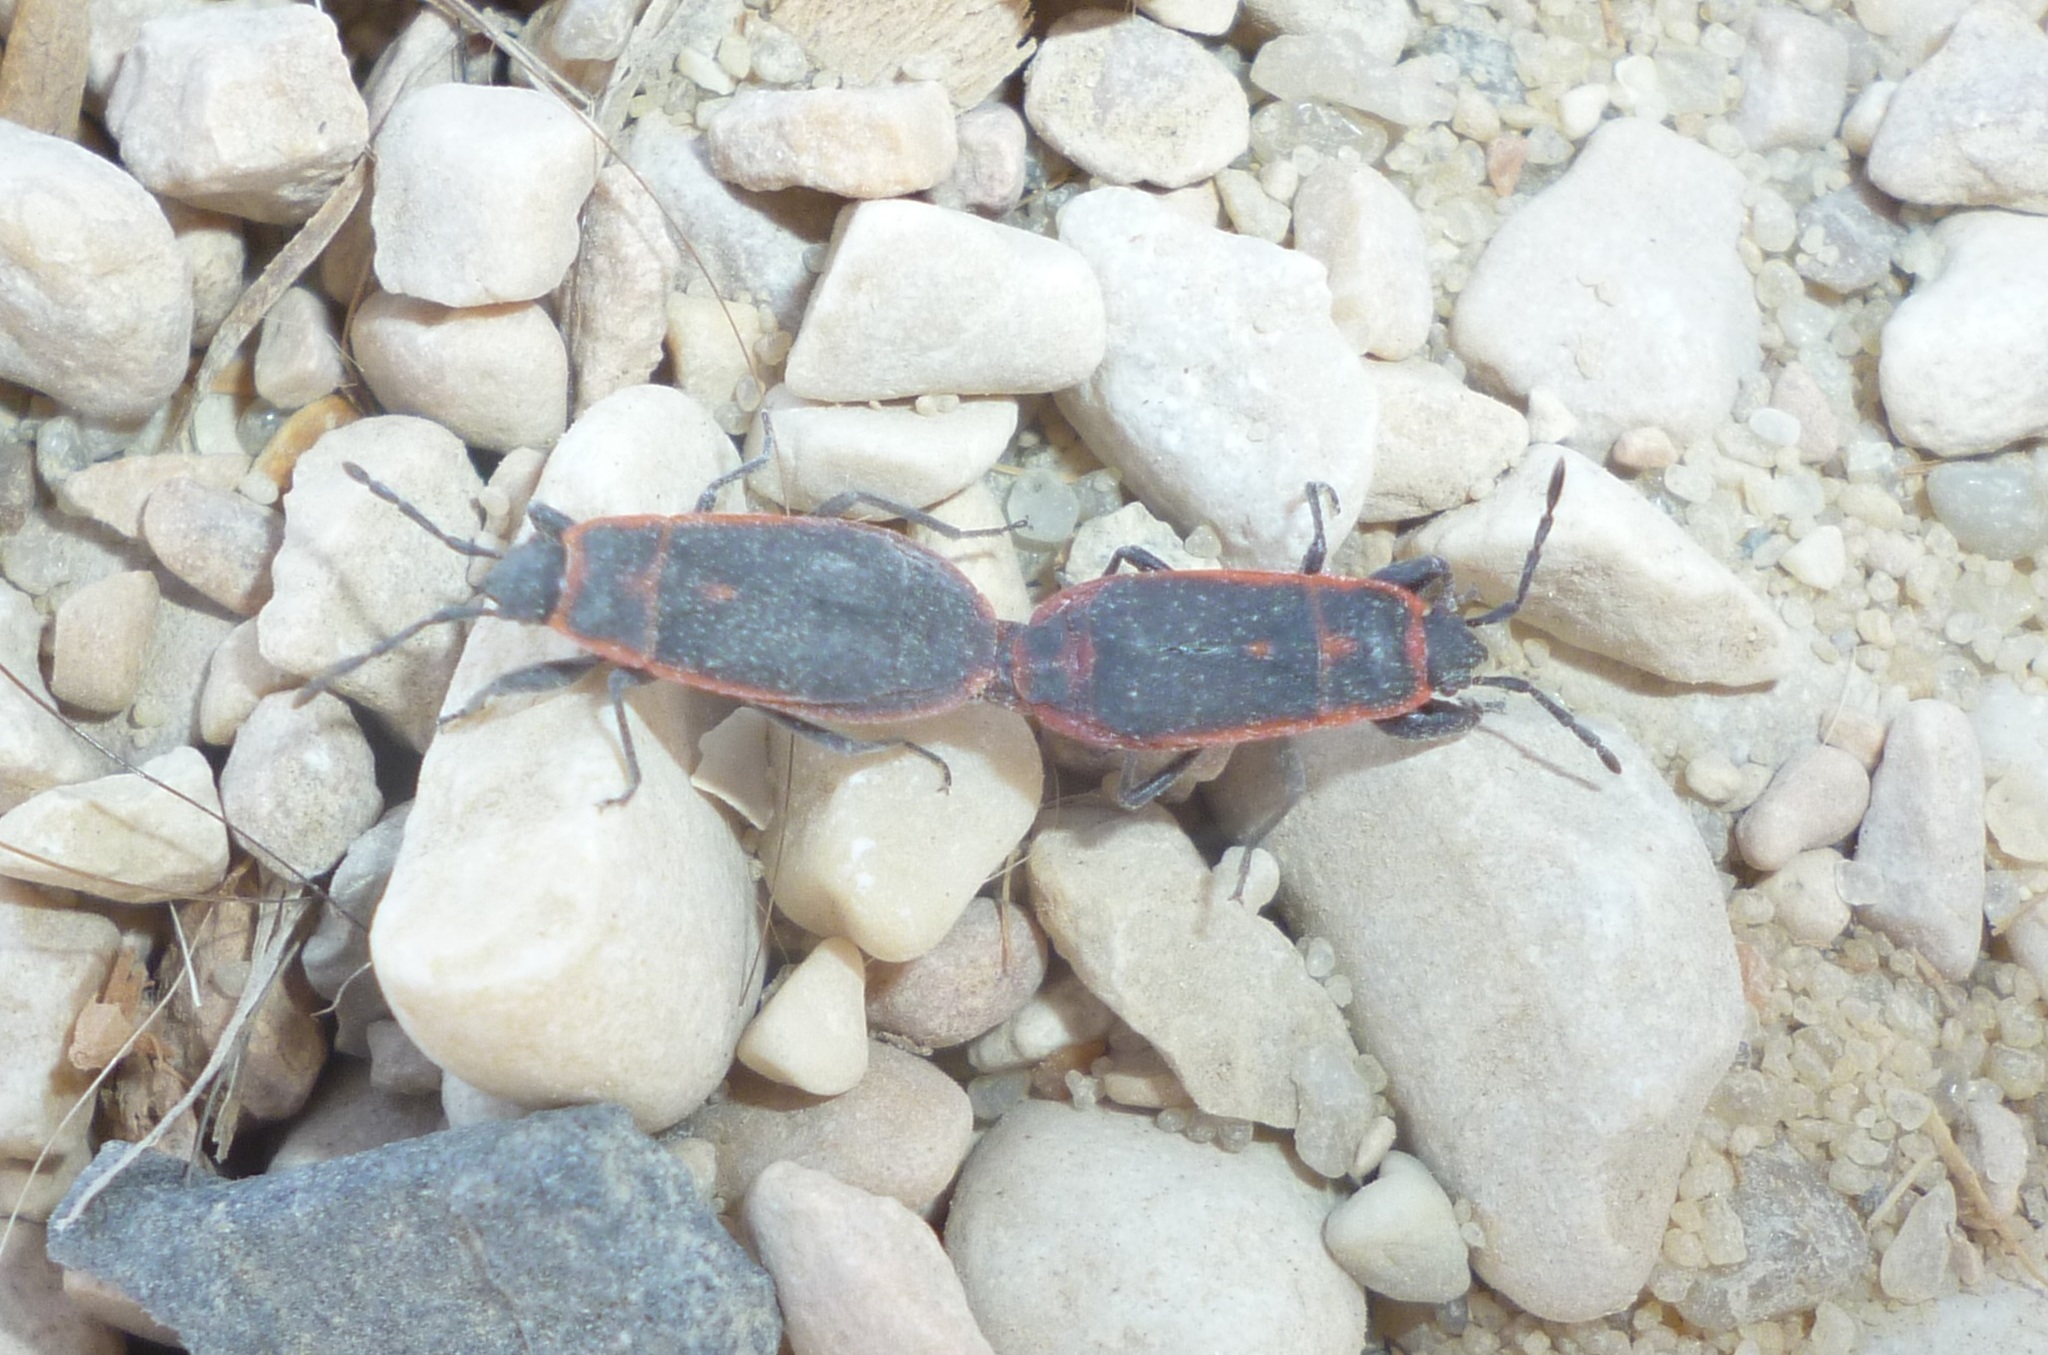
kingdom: Animalia
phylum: Arthropoda
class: Insecta
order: Hemiptera
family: Pyrrhocoridae
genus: Scantius
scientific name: Scantius forsteri
